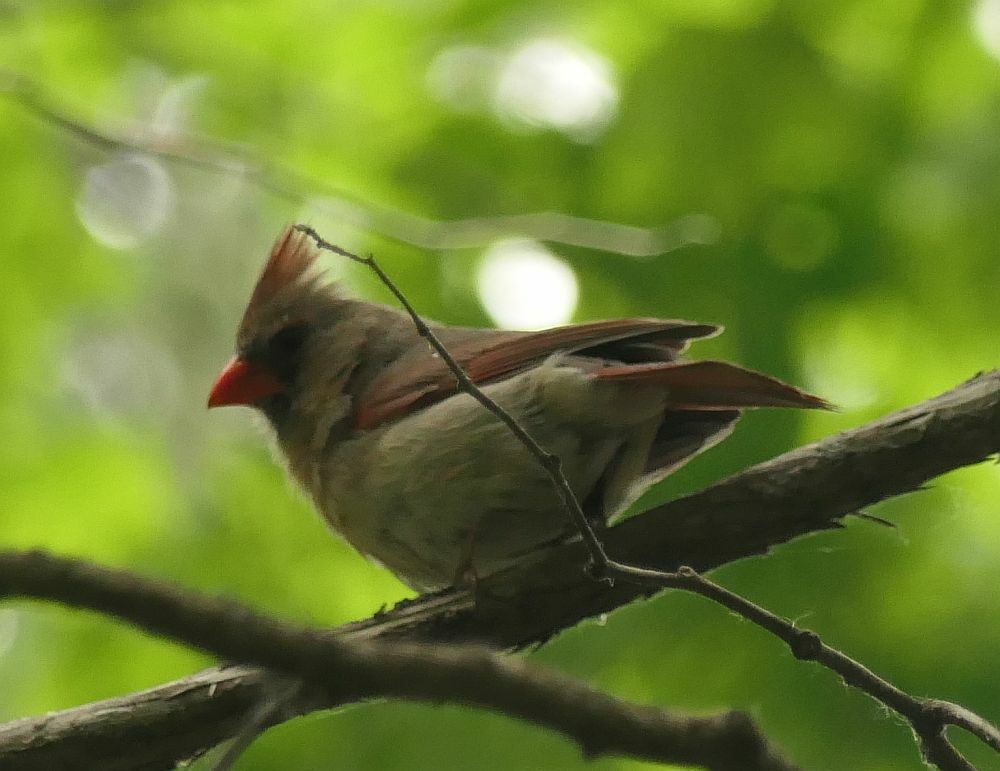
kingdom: Animalia
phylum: Chordata
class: Aves
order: Passeriformes
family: Cardinalidae
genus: Cardinalis
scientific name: Cardinalis cardinalis
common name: Northern cardinal
